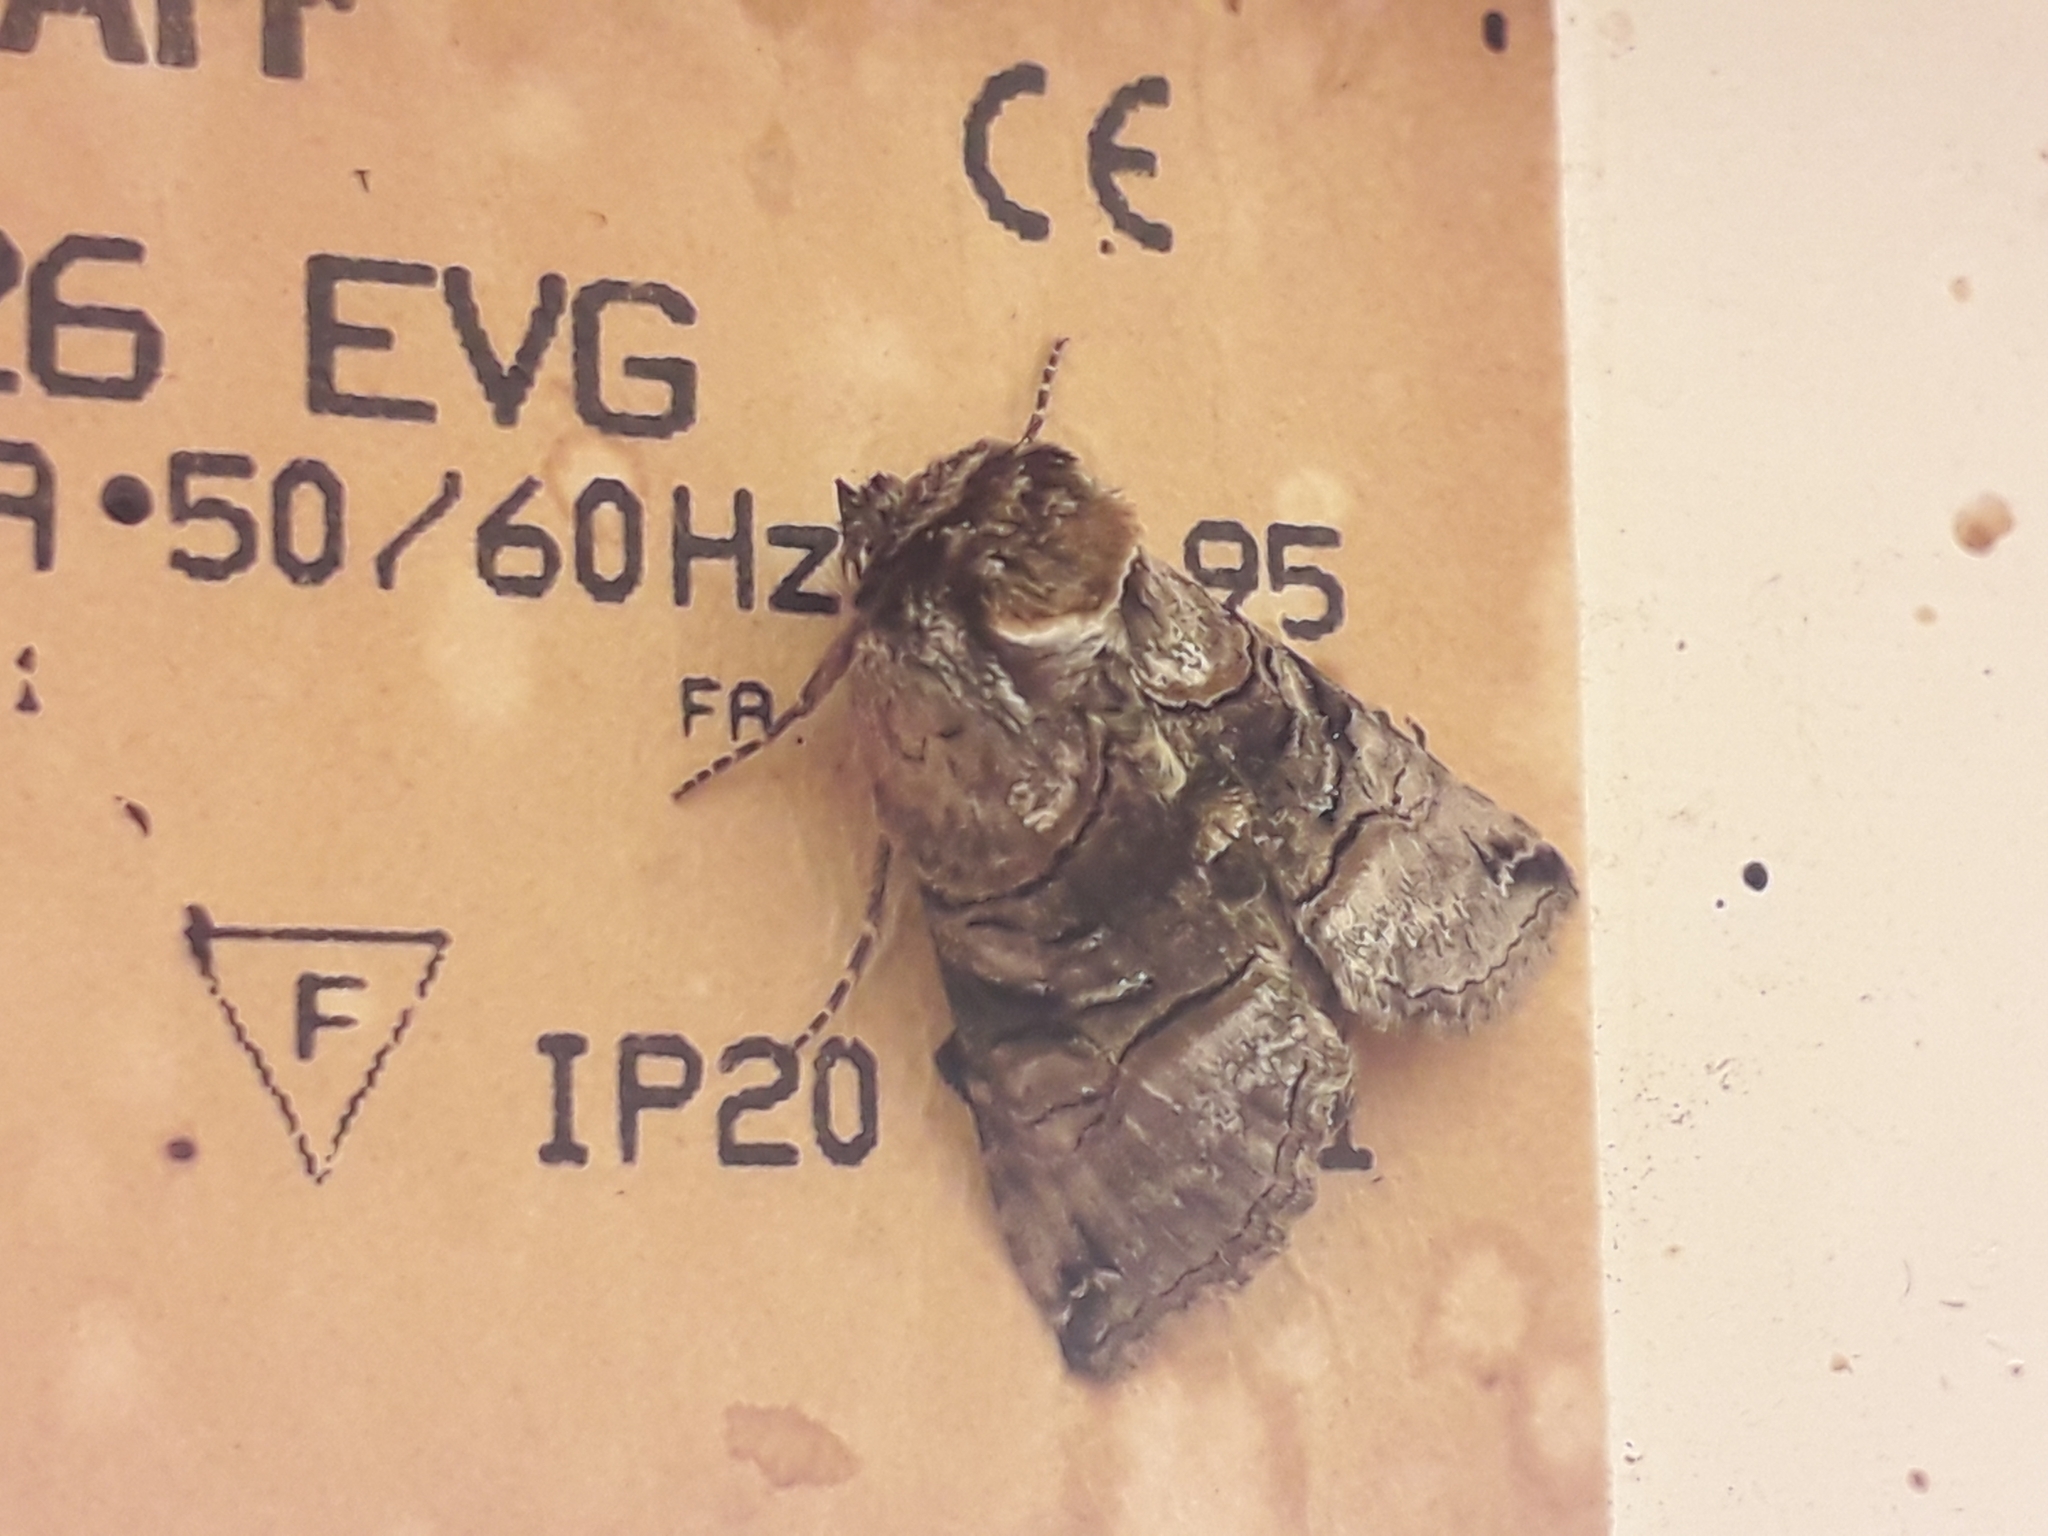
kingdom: Animalia
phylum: Arthropoda
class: Insecta
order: Lepidoptera
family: Noctuidae
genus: Abrostola
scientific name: Abrostola tripartita
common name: Spectacle
